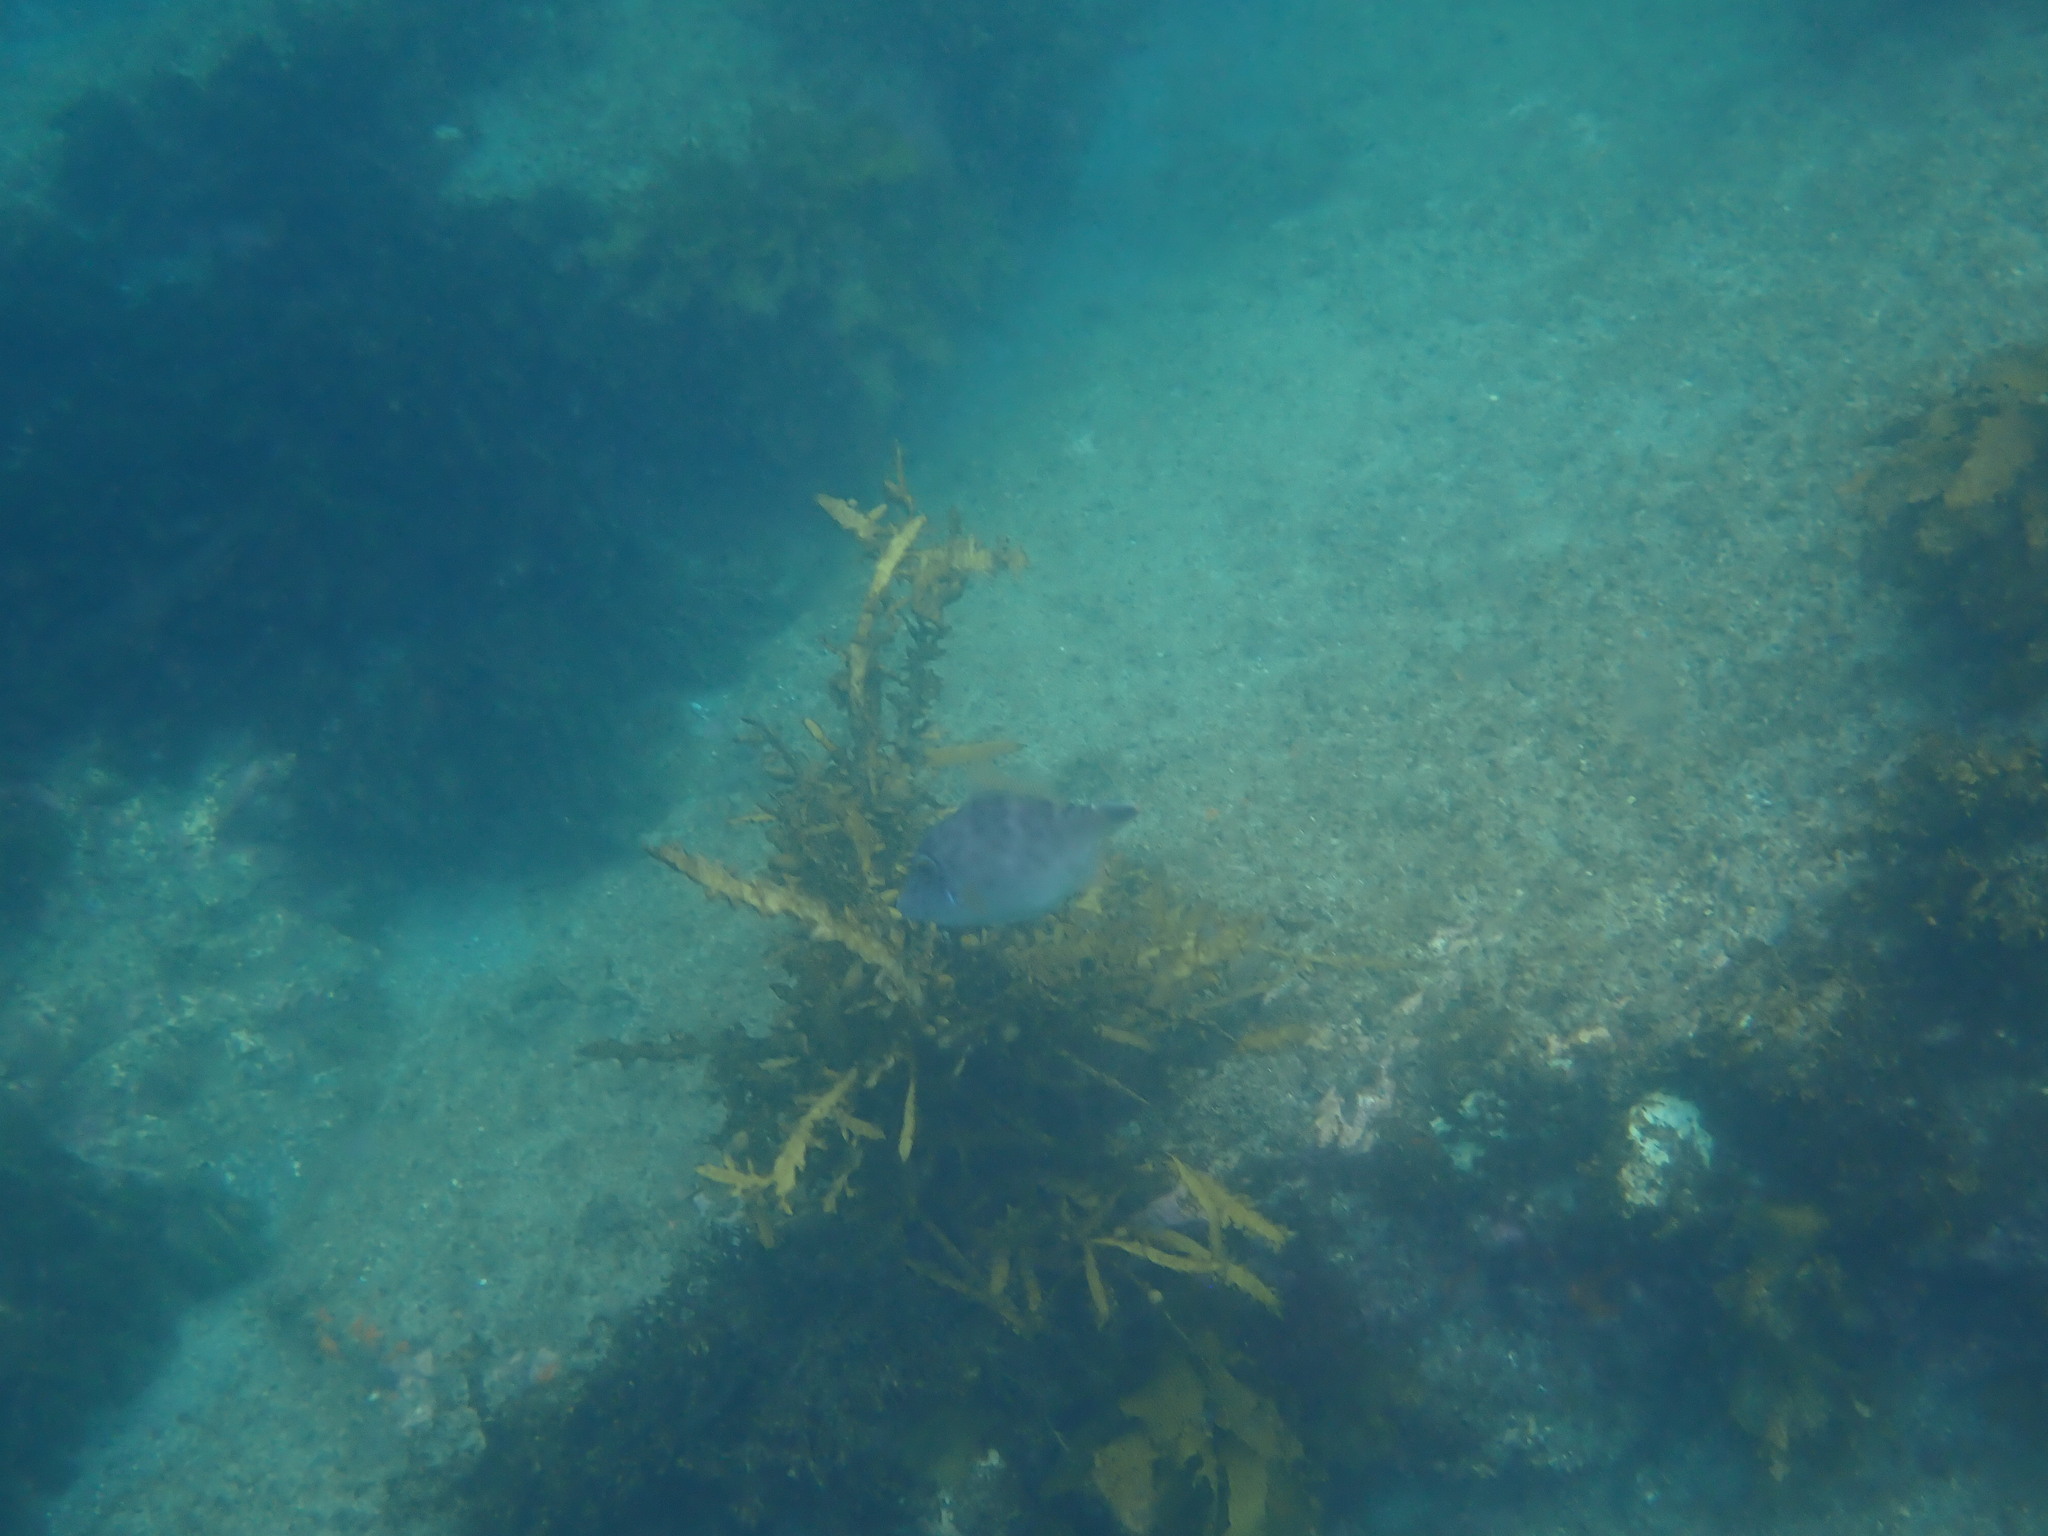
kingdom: Animalia
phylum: Chordata
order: Tetraodontiformes
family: Monacanthidae
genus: Meuschenia
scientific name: Meuschenia scaber
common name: Cosmopolitan leatherjacket
